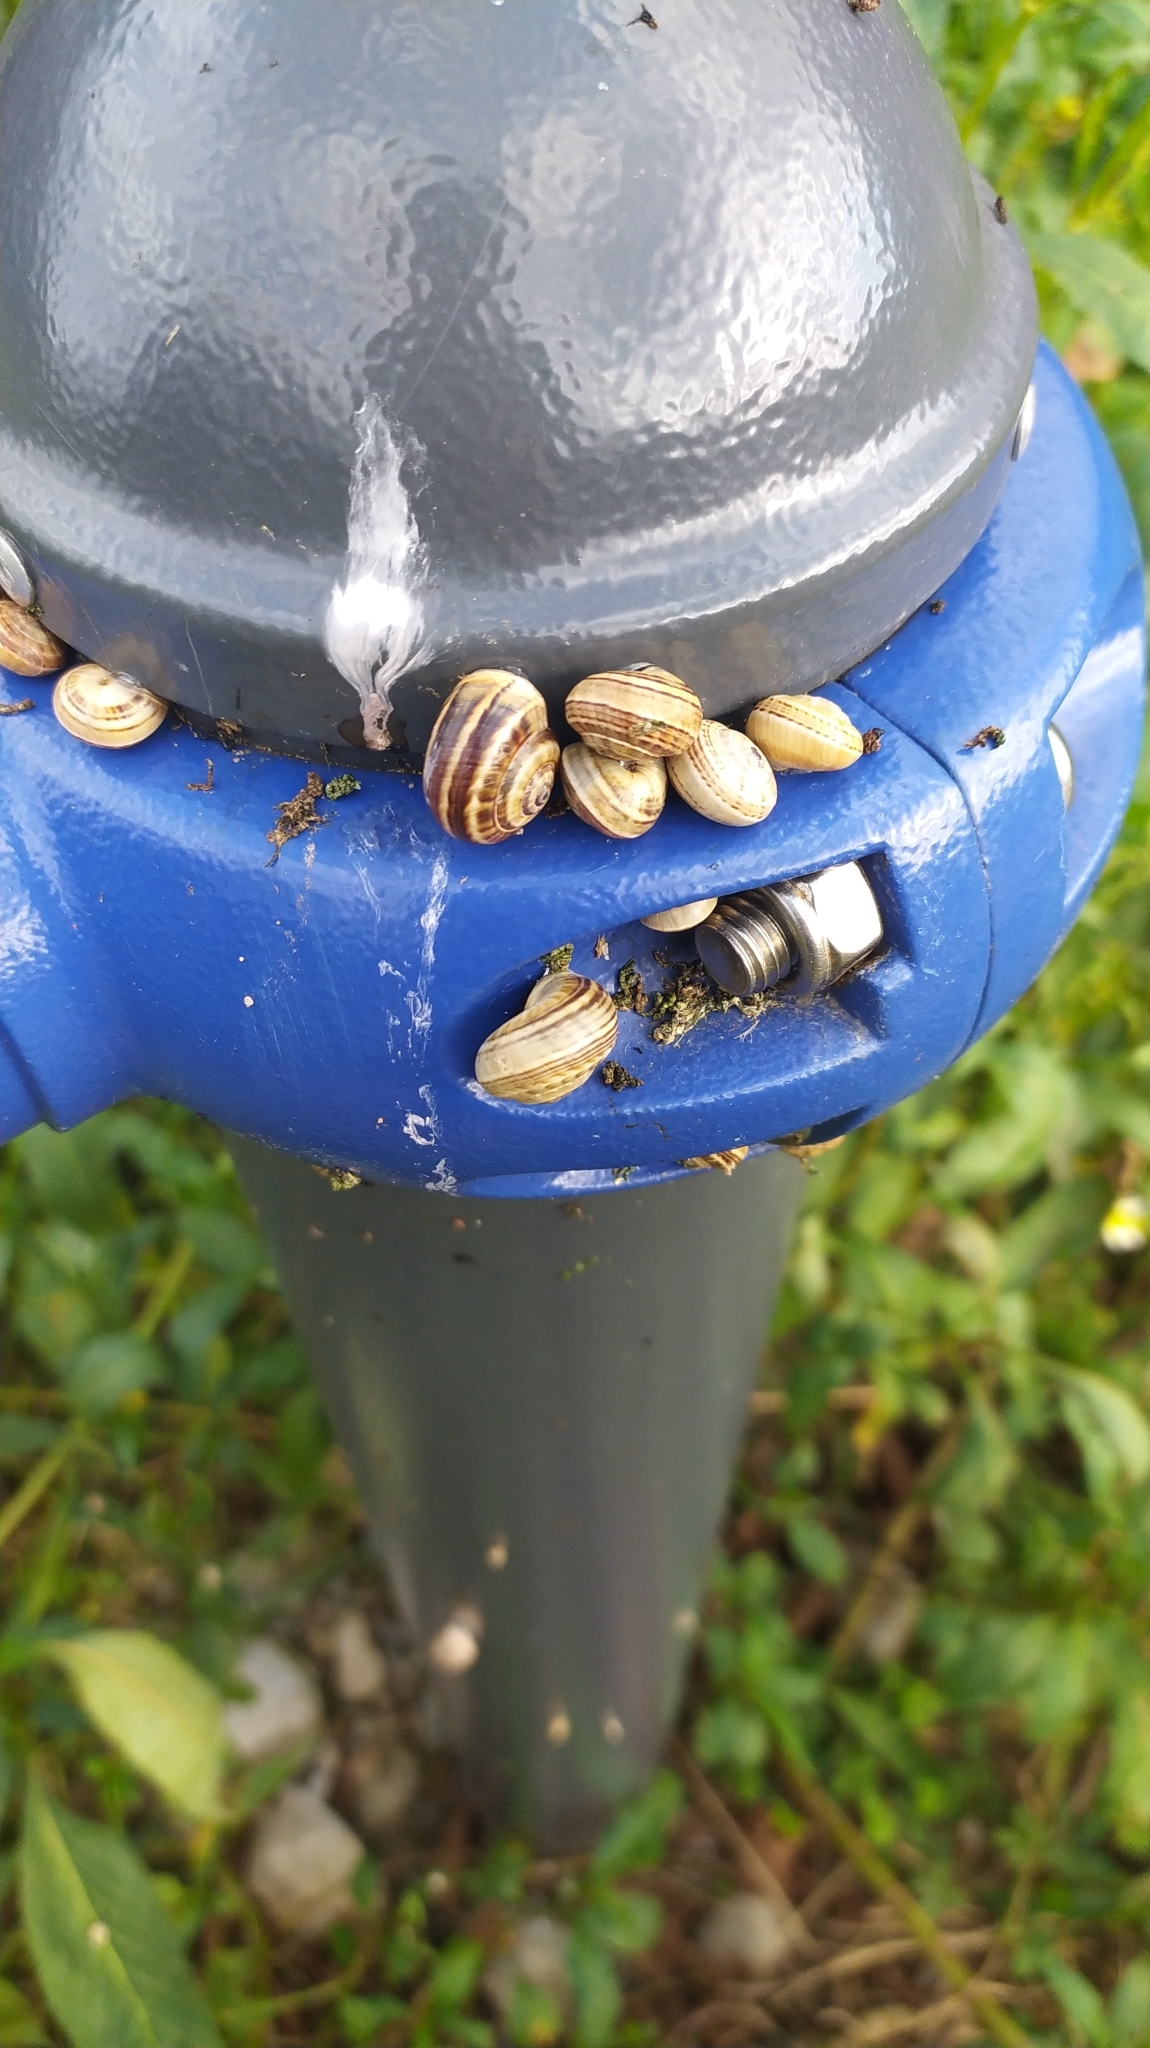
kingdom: Animalia
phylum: Mollusca
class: Gastropoda
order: Stylommatophora
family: Helicidae
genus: Theba
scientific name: Theba pisana
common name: White snail
